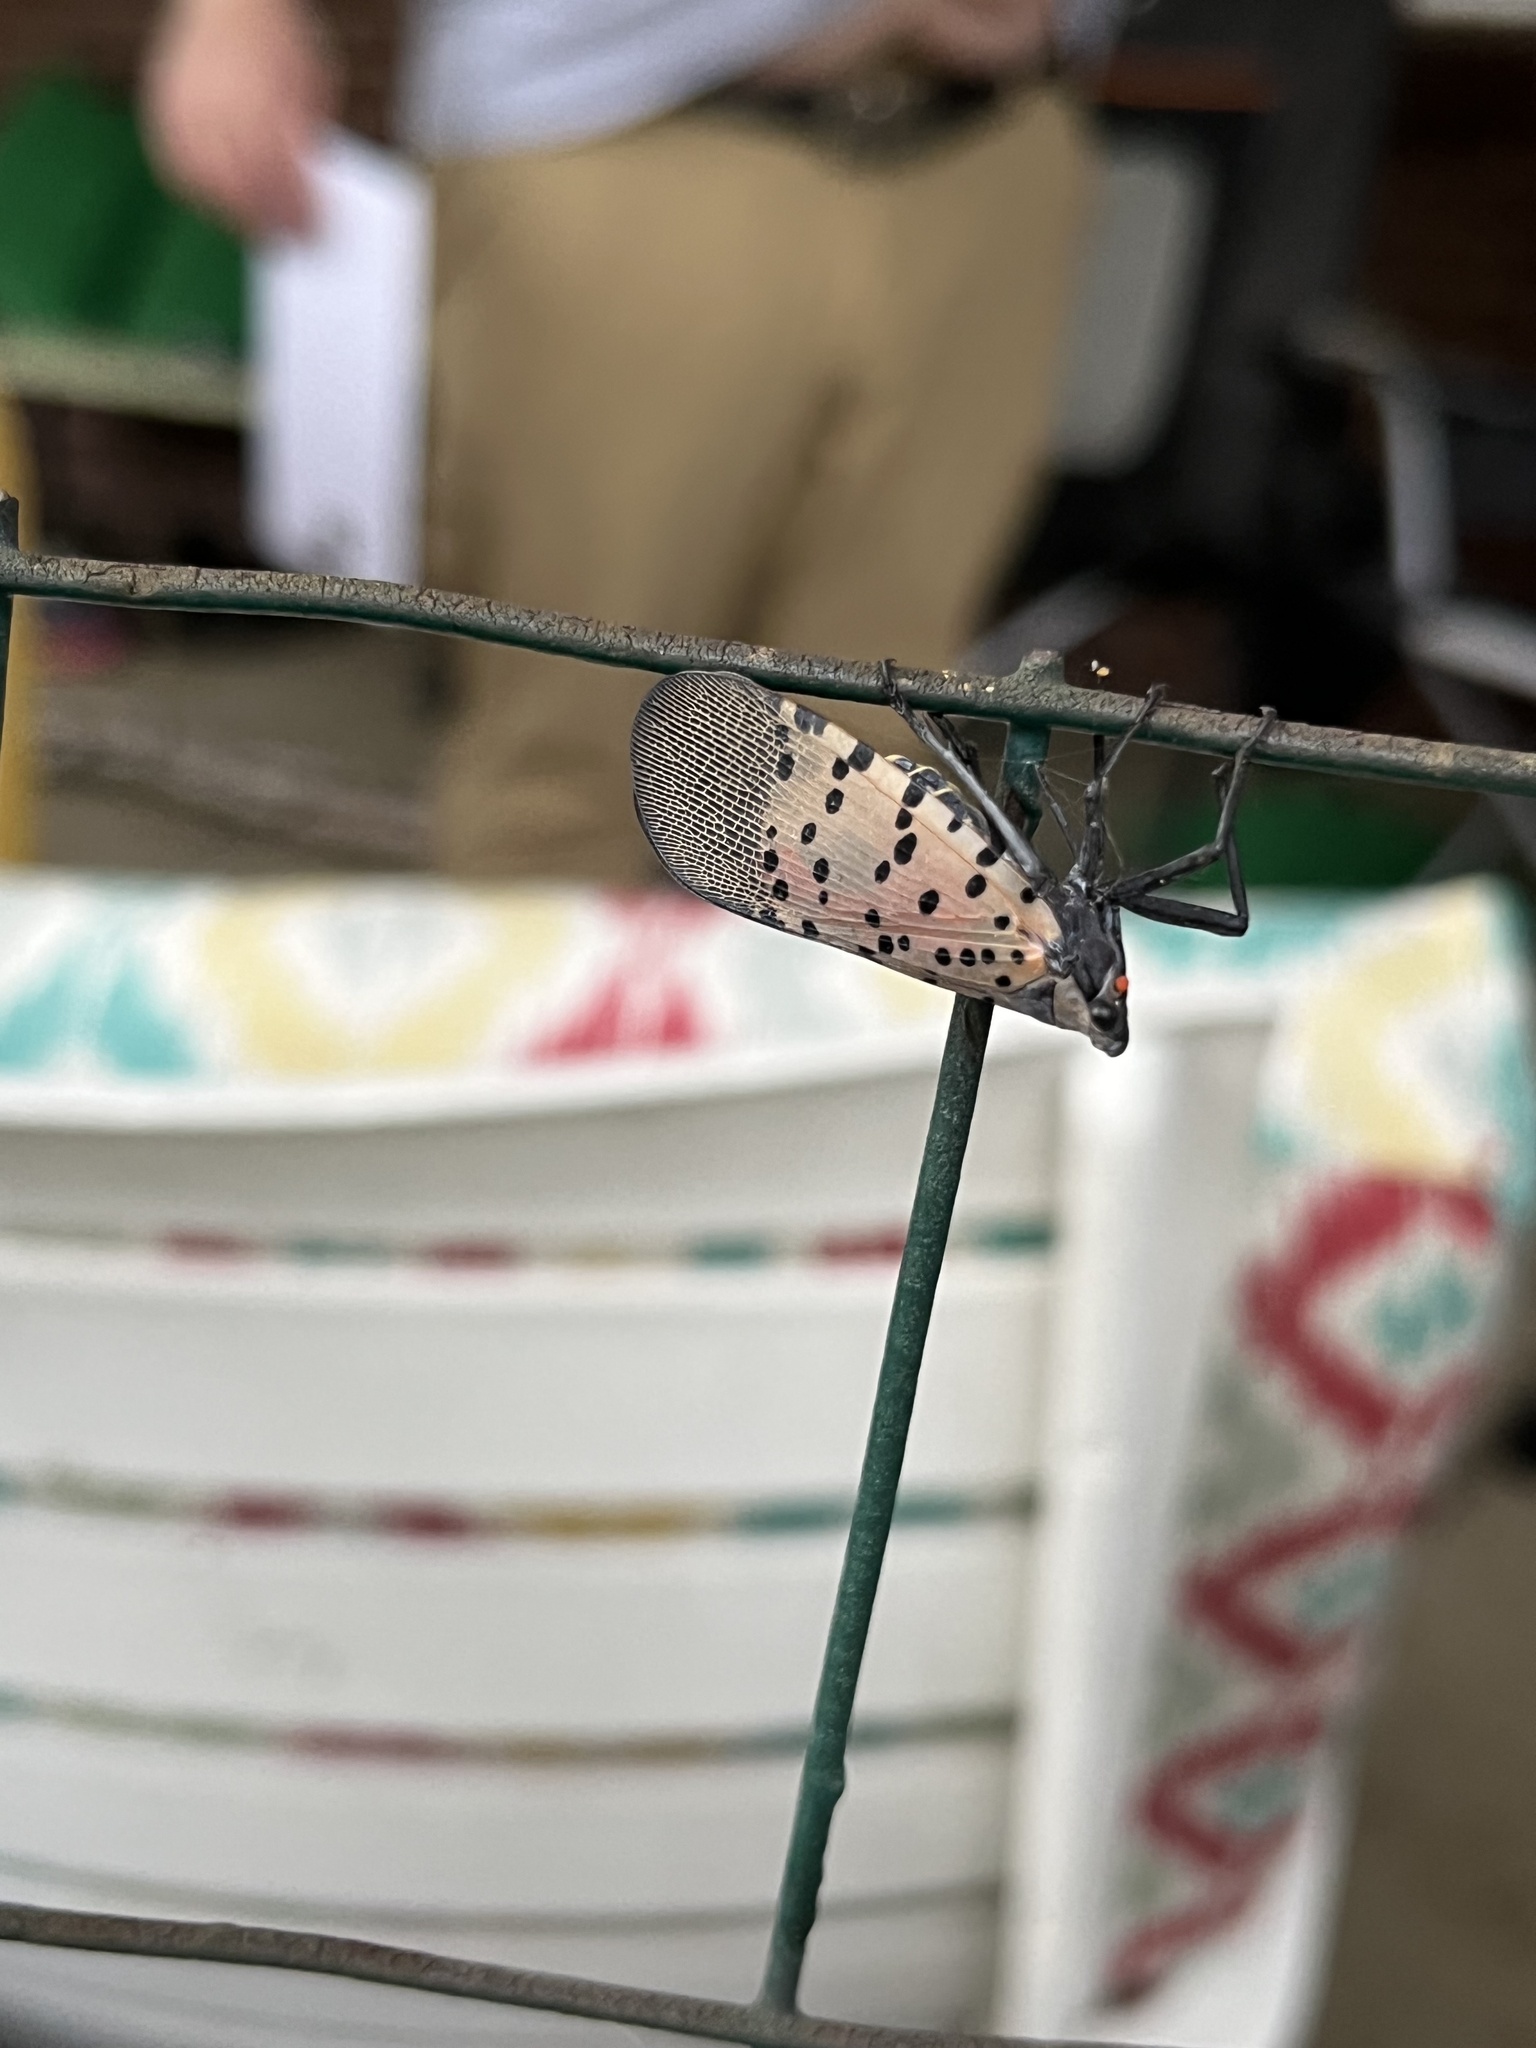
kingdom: Animalia
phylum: Arthropoda
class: Insecta
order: Hemiptera
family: Fulgoridae
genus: Lycorma
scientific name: Lycorma delicatula
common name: Spotted lanternfly
